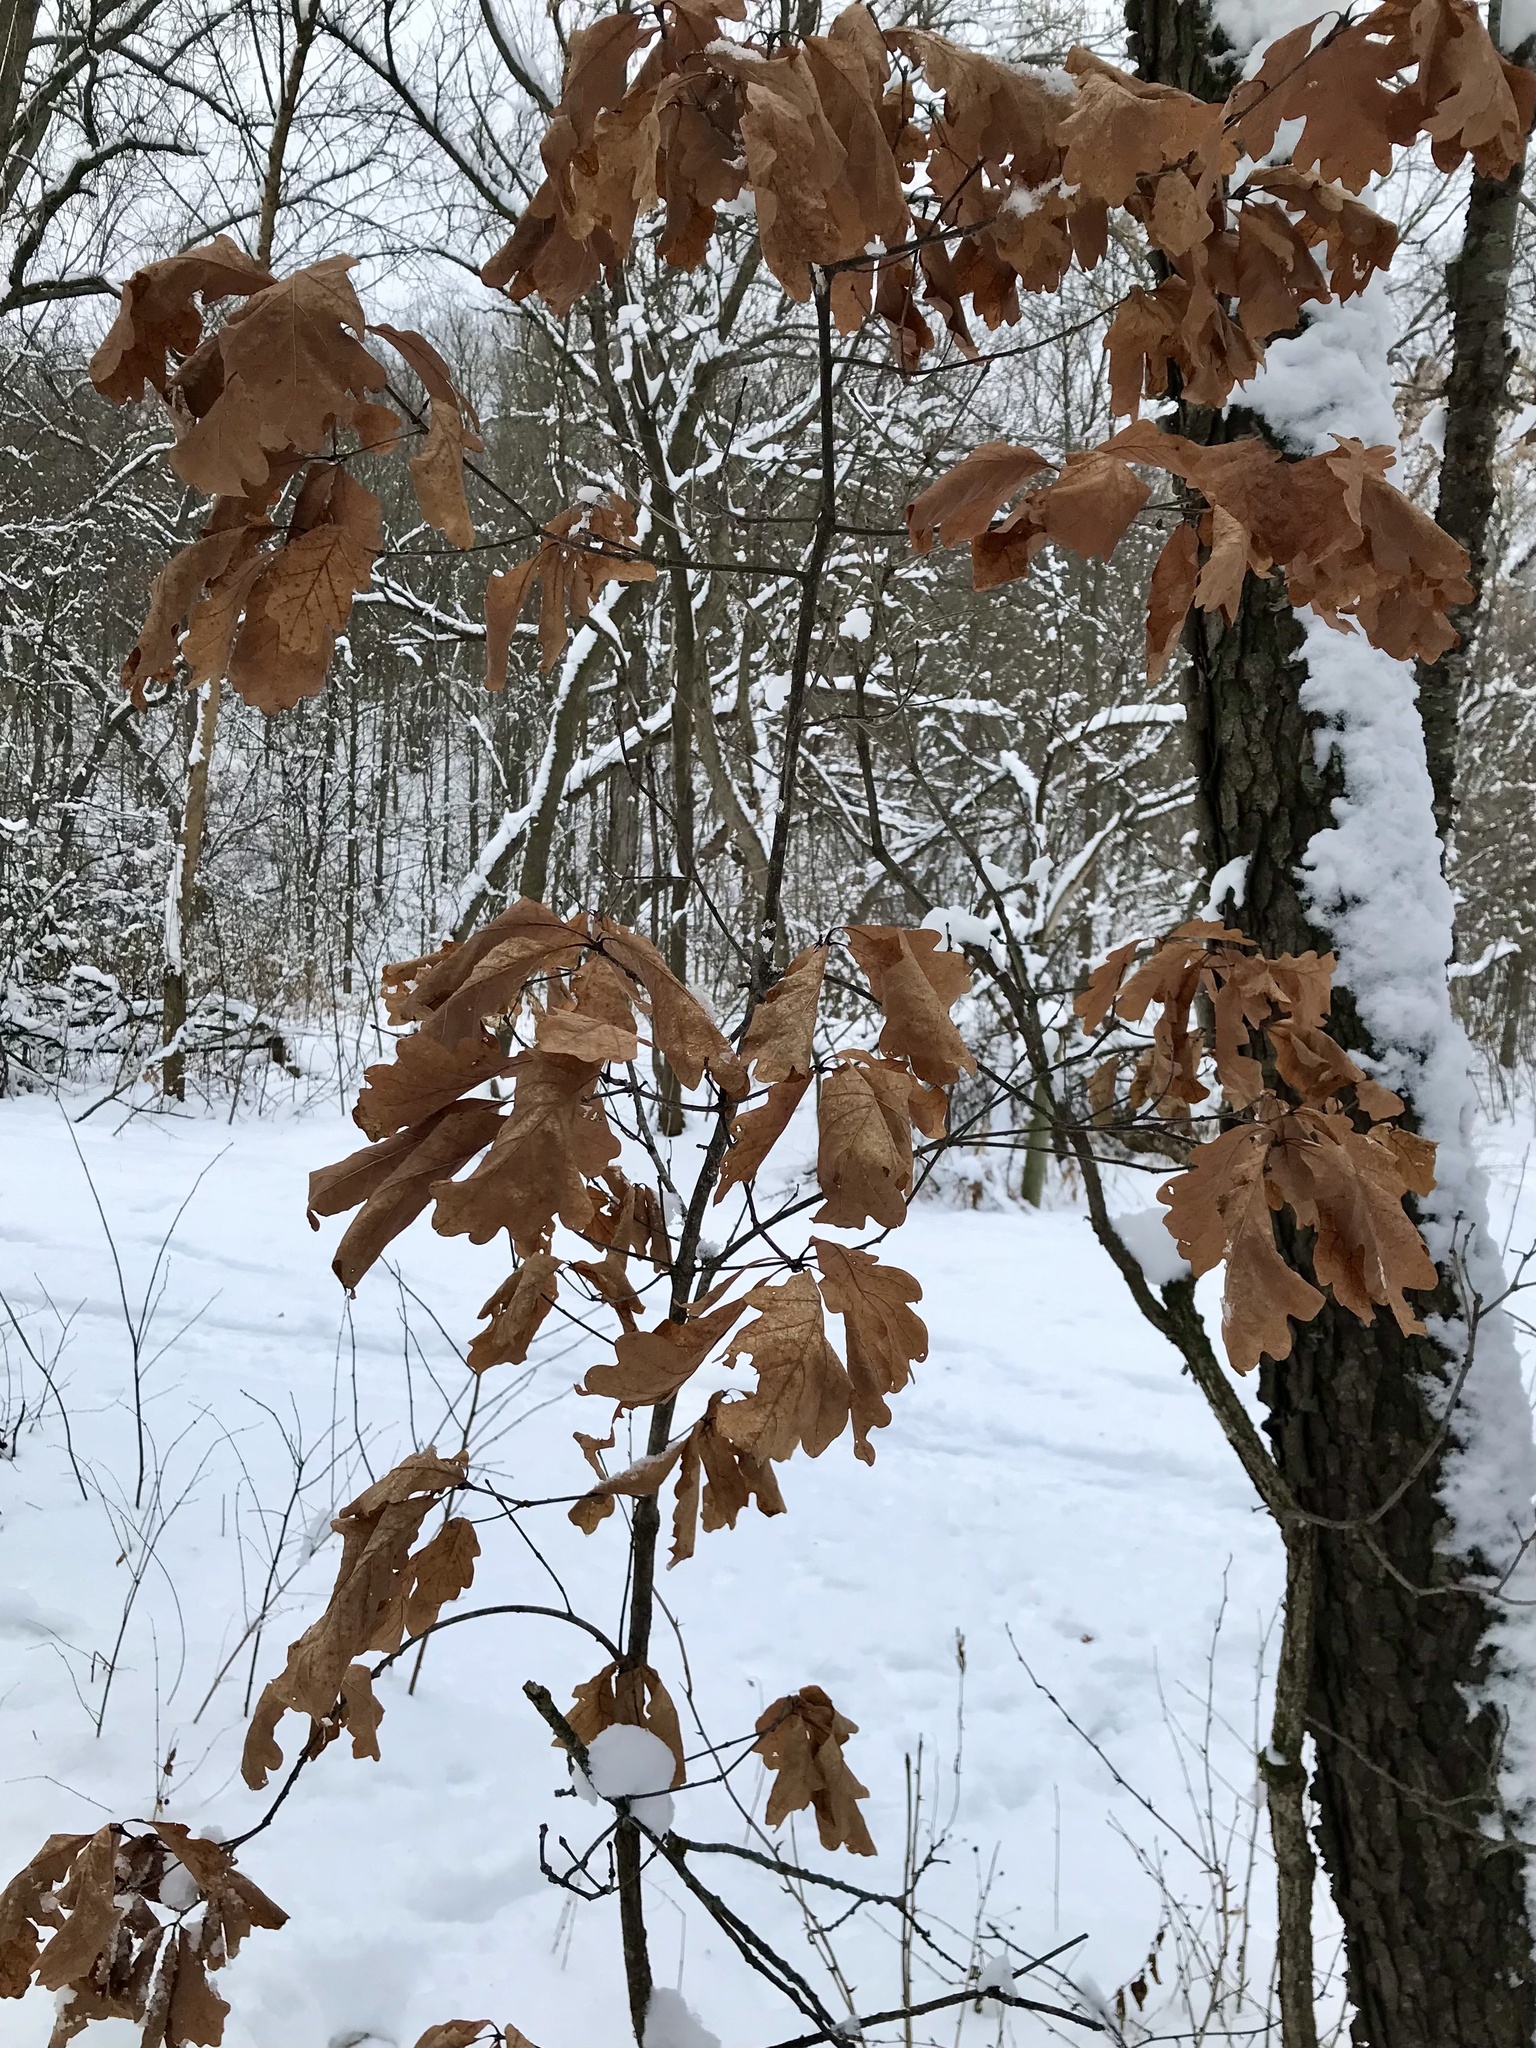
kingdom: Plantae
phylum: Tracheophyta
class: Magnoliopsida
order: Fagales
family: Fagaceae
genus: Quercus
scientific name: Quercus alba
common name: White oak
